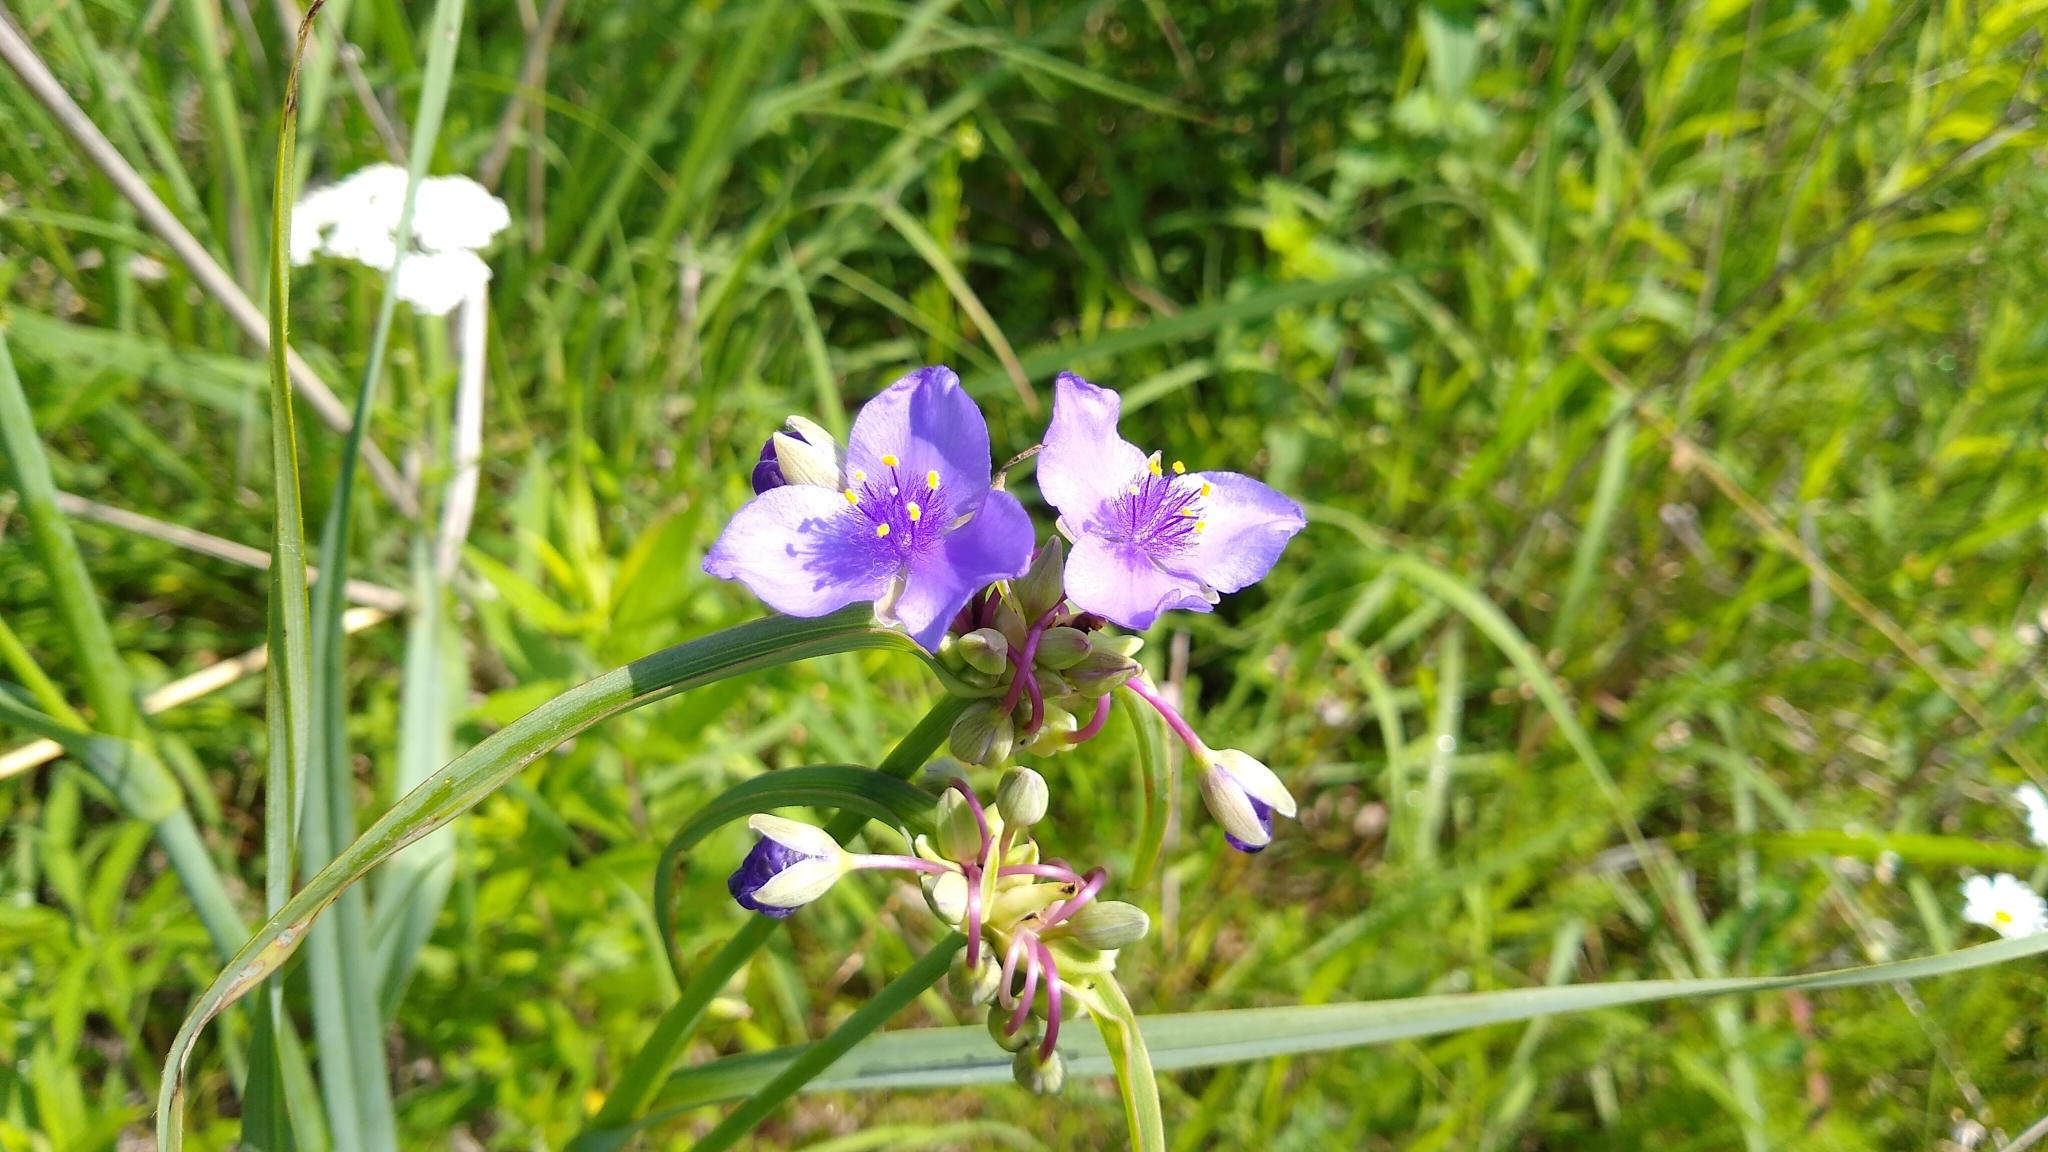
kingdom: Plantae
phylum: Tracheophyta
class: Liliopsida
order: Commelinales
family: Commelinaceae
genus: Tradescantia
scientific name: Tradescantia ohiensis
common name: Ohio spiderwort
